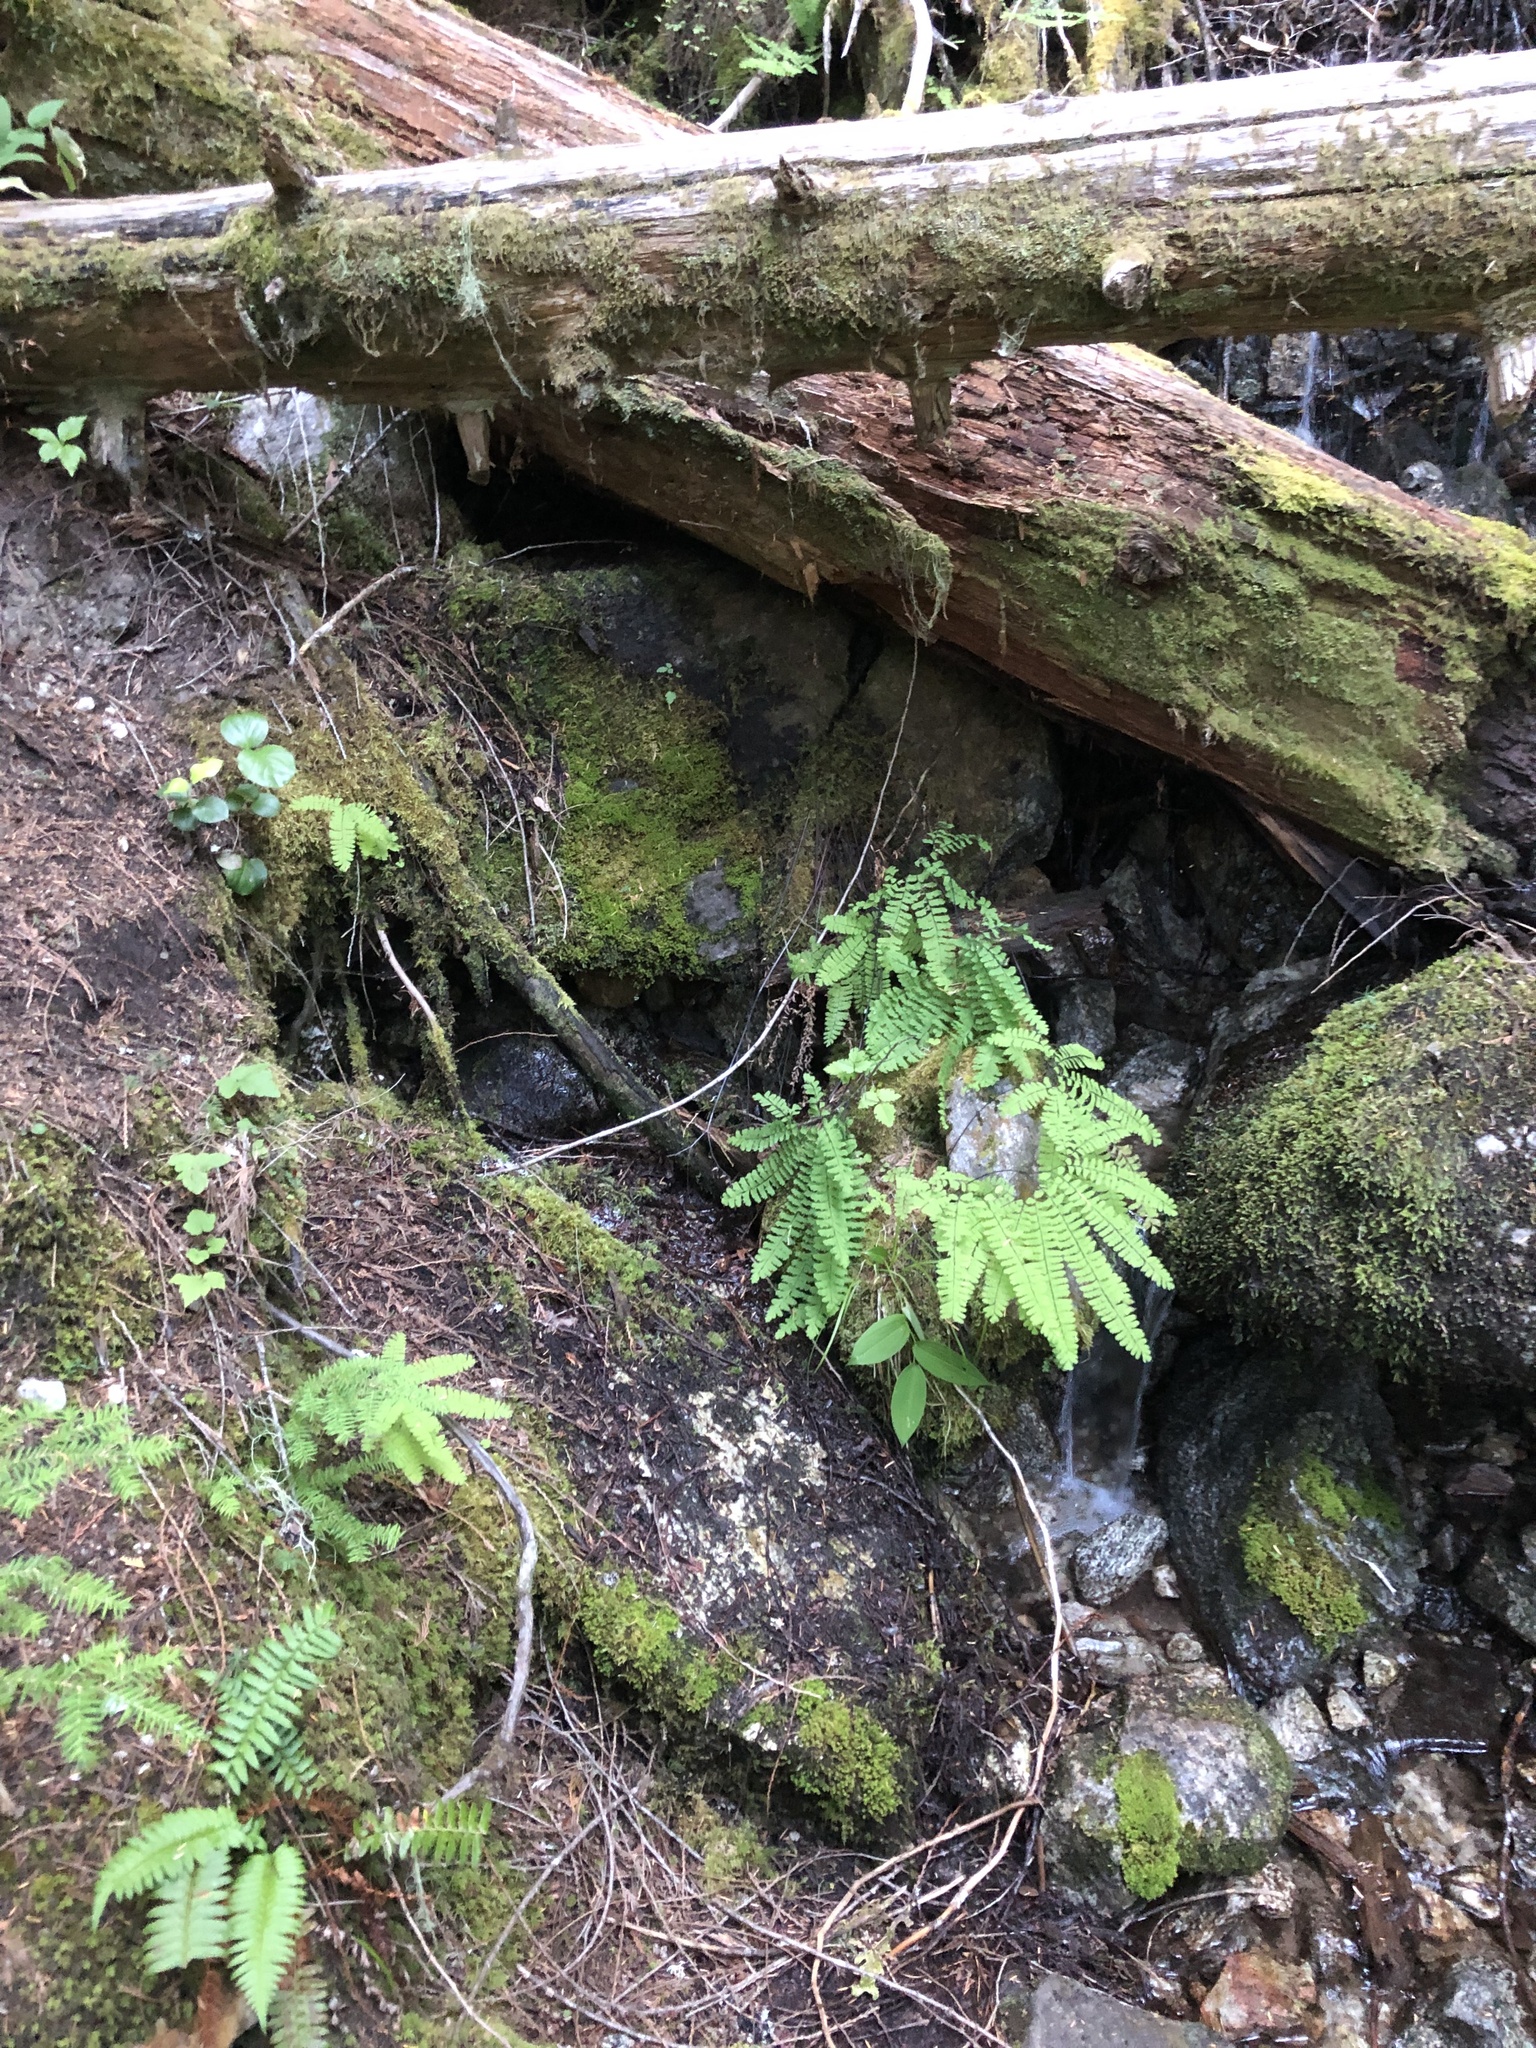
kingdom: Plantae
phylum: Tracheophyta
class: Polypodiopsida
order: Polypodiales
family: Pteridaceae
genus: Adiantum
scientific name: Adiantum aleuticum
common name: Aleutian maidenhair fern
